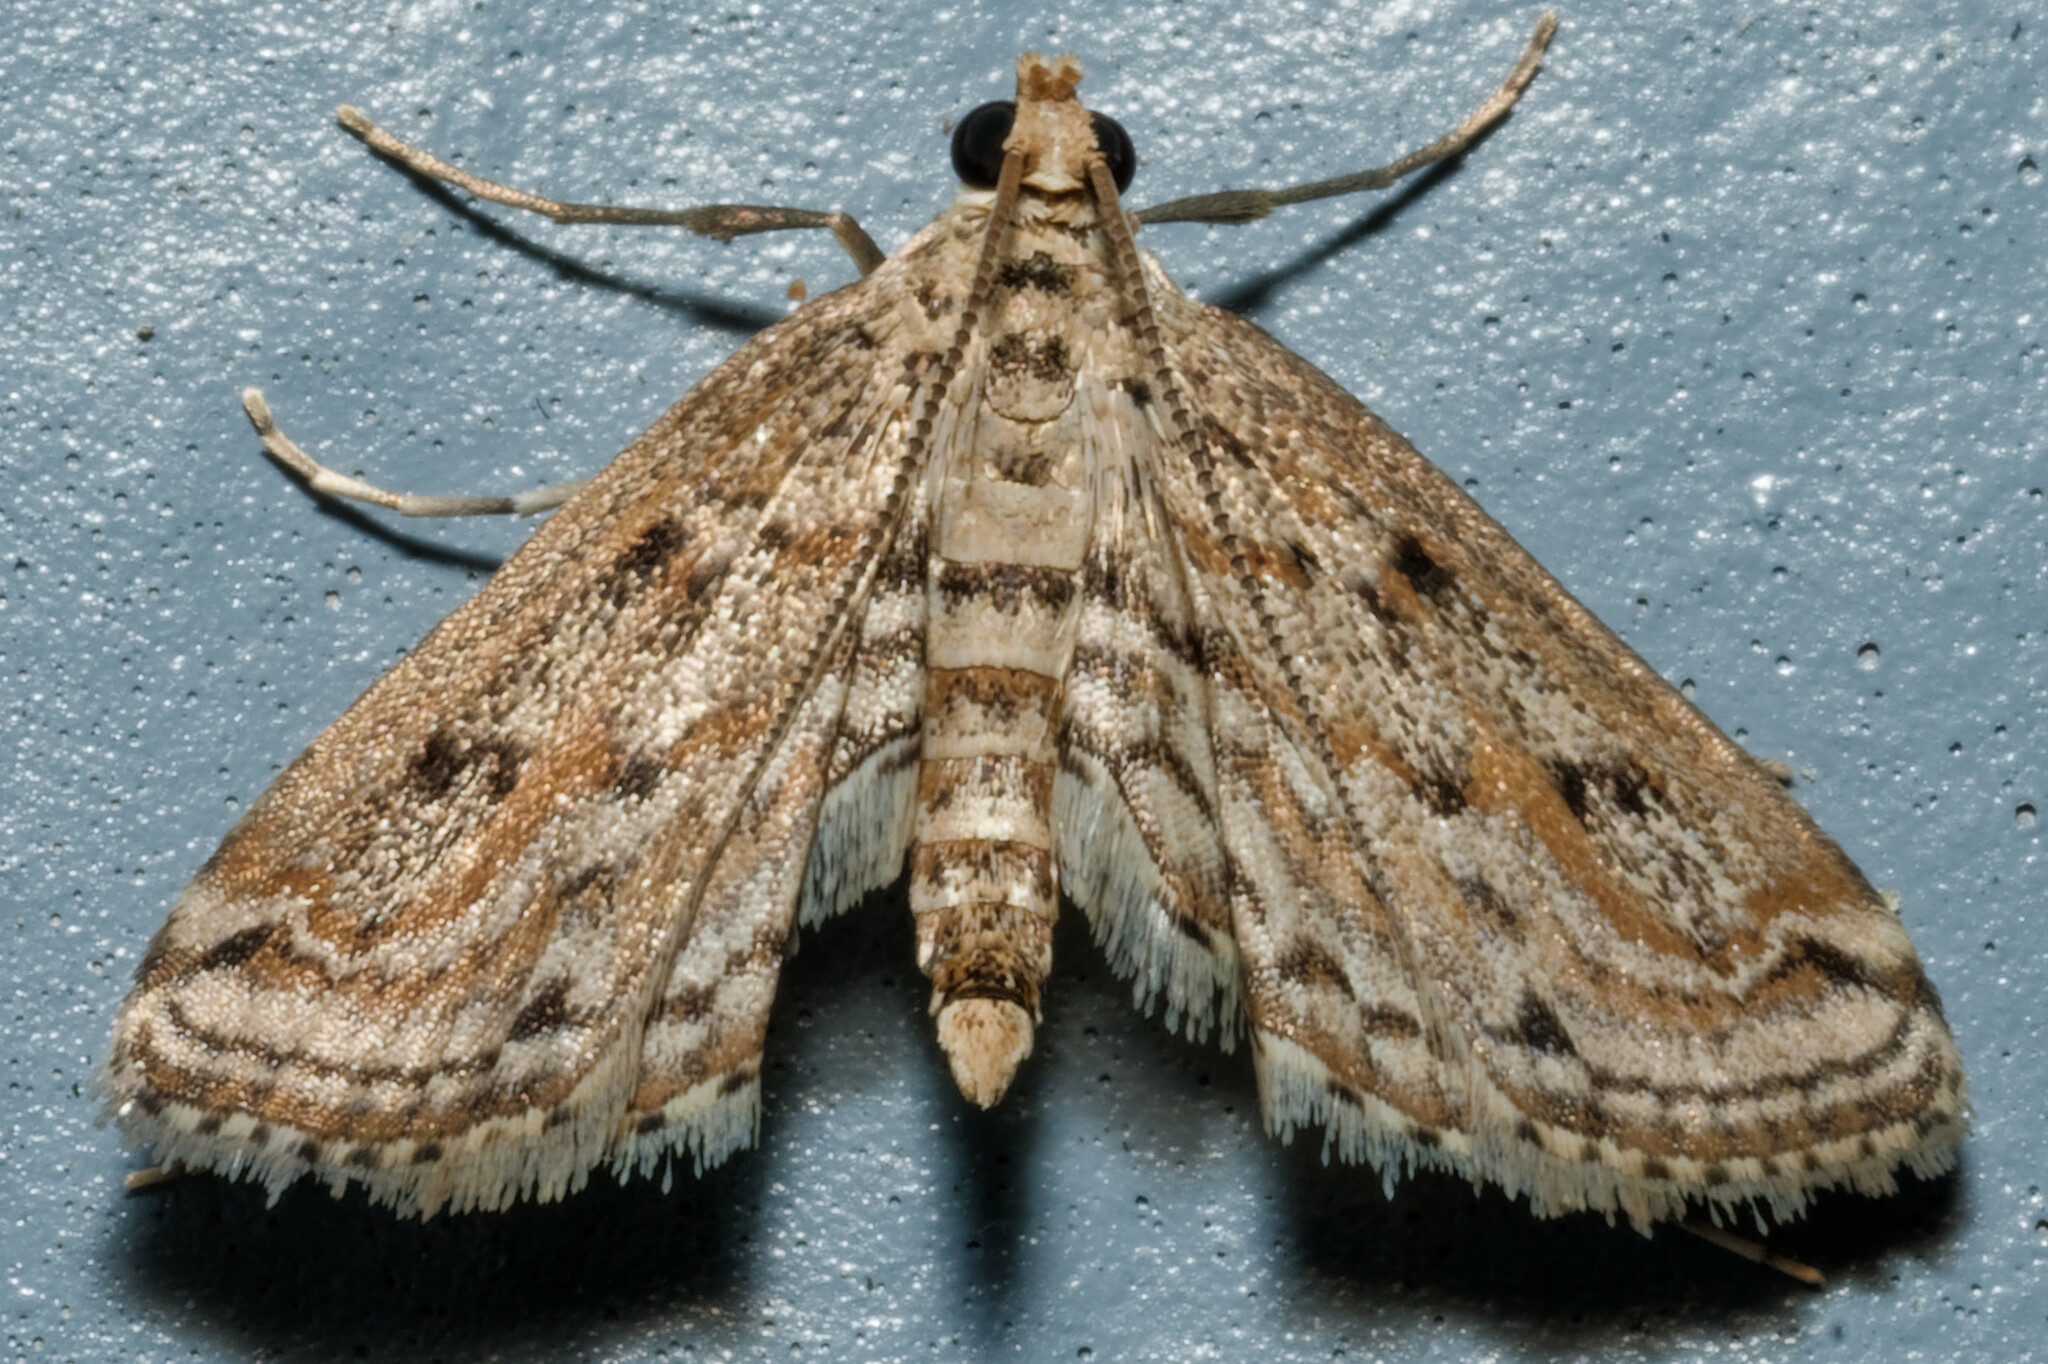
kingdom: Animalia
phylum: Arthropoda
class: Insecta
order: Lepidoptera
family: Crambidae
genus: Parapoynx
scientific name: Parapoynx allionealis
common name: Bladderwort casemaker
